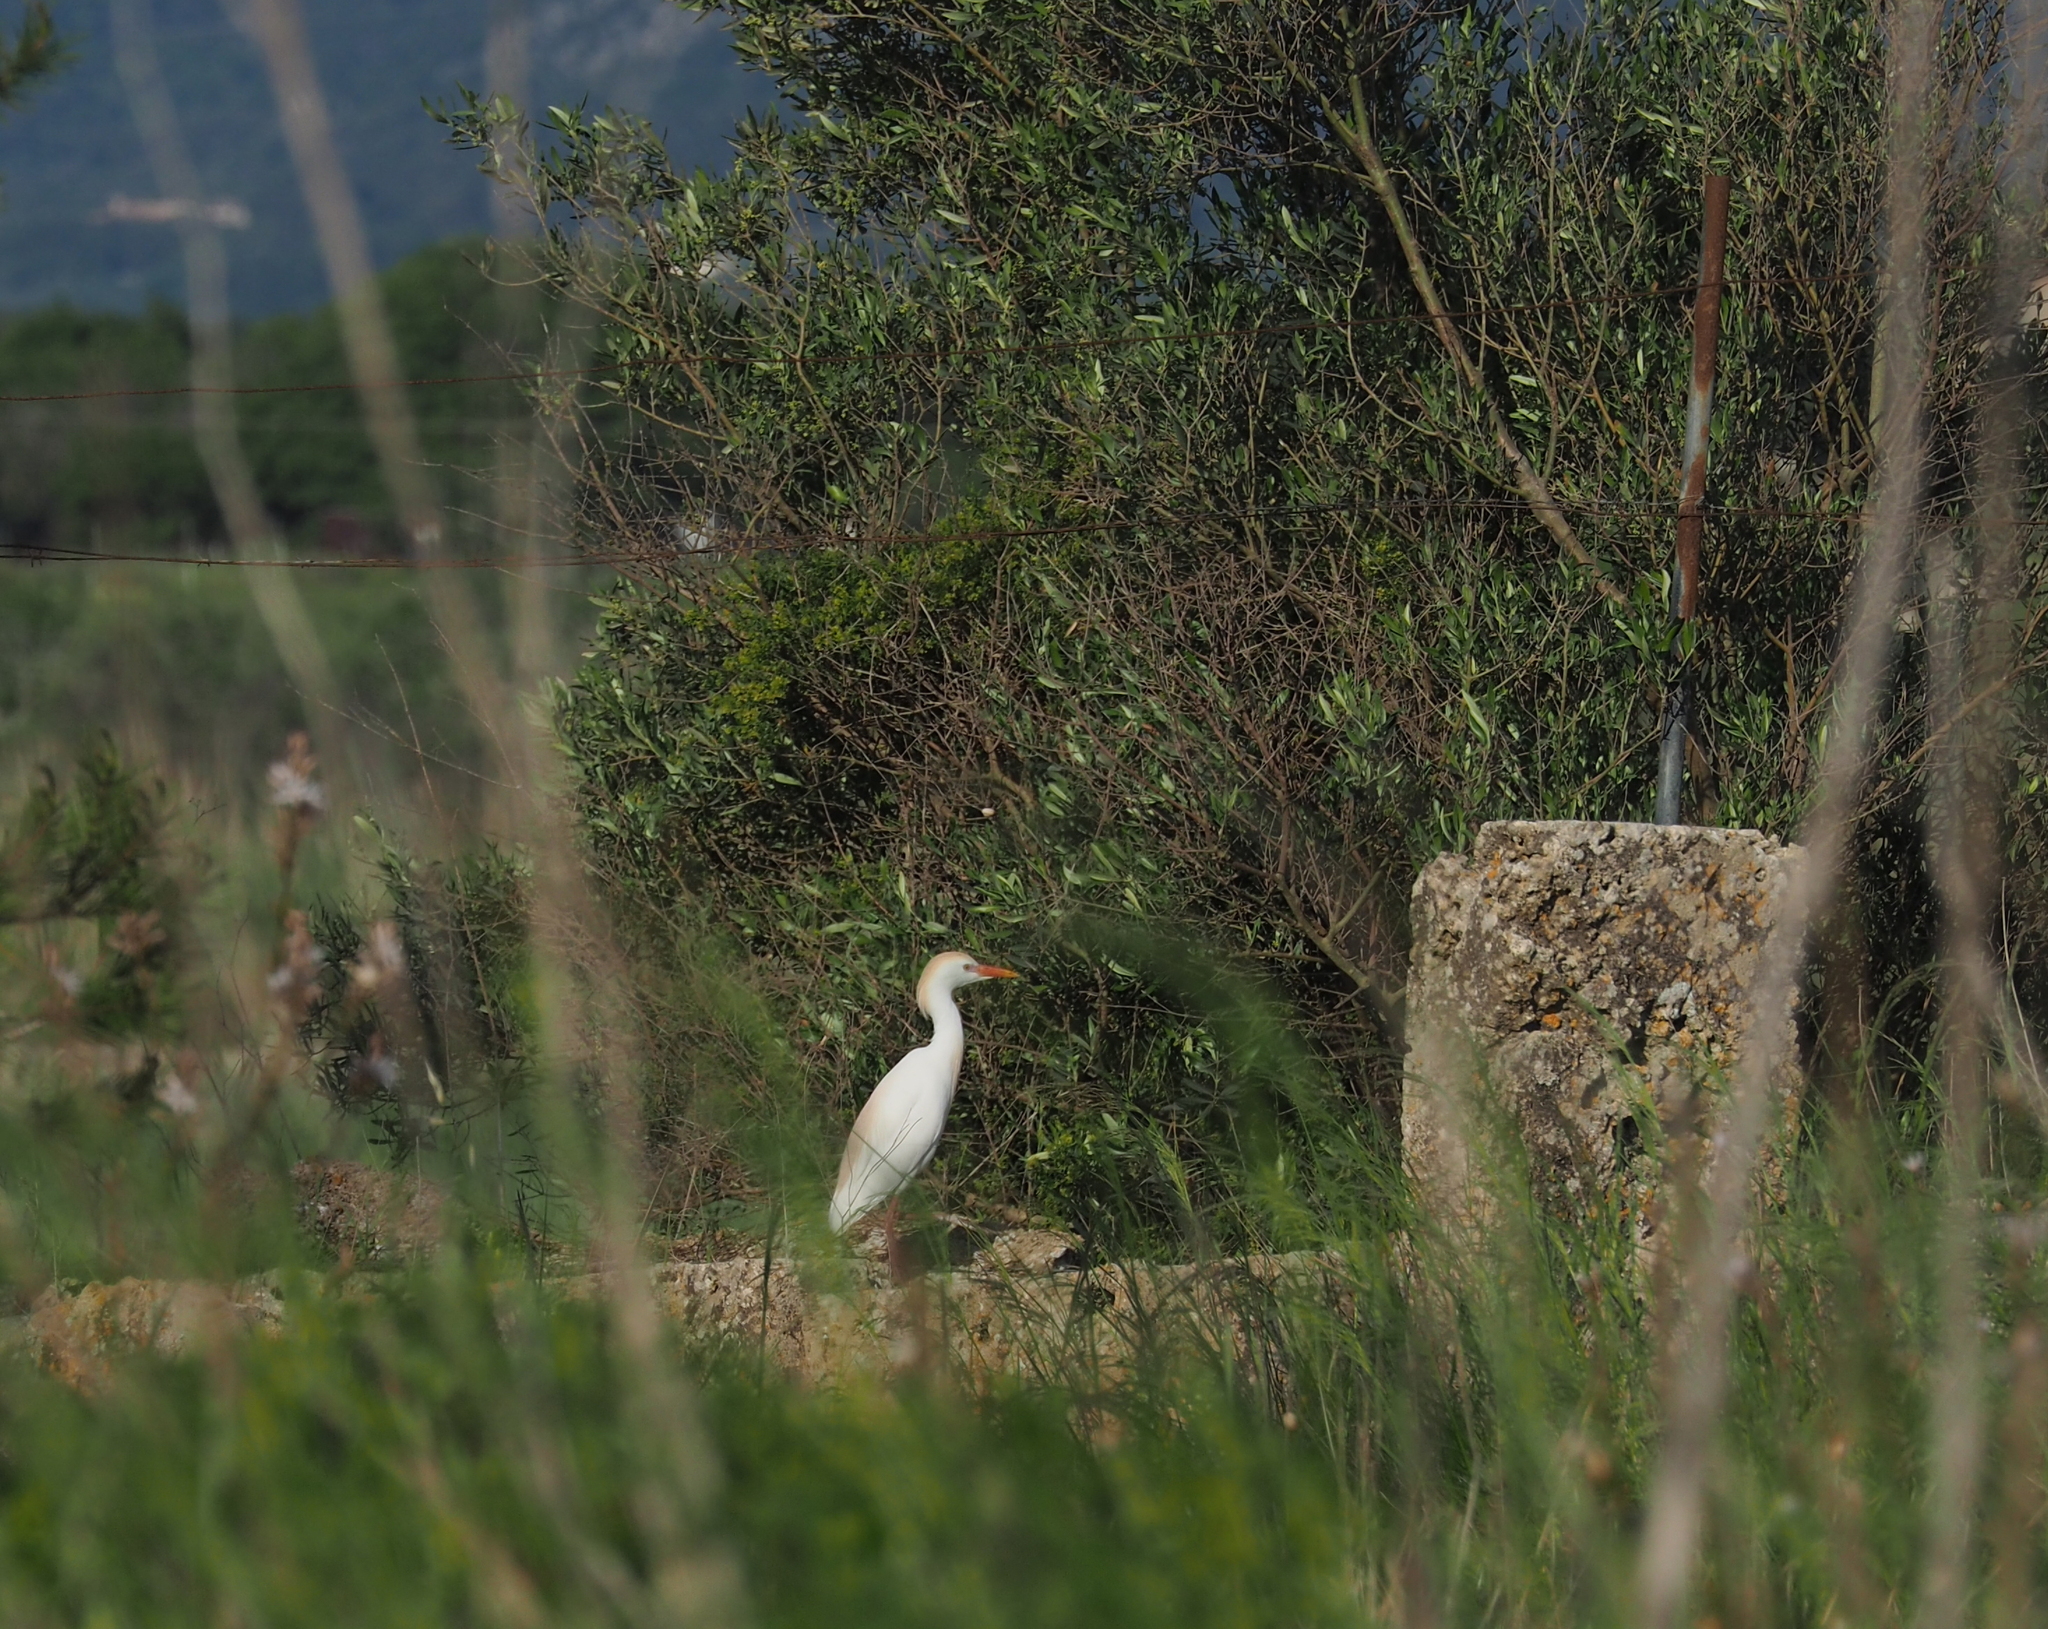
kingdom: Animalia
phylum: Chordata
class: Aves
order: Pelecaniformes
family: Ardeidae
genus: Bubulcus
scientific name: Bubulcus ibis
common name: Cattle egret
